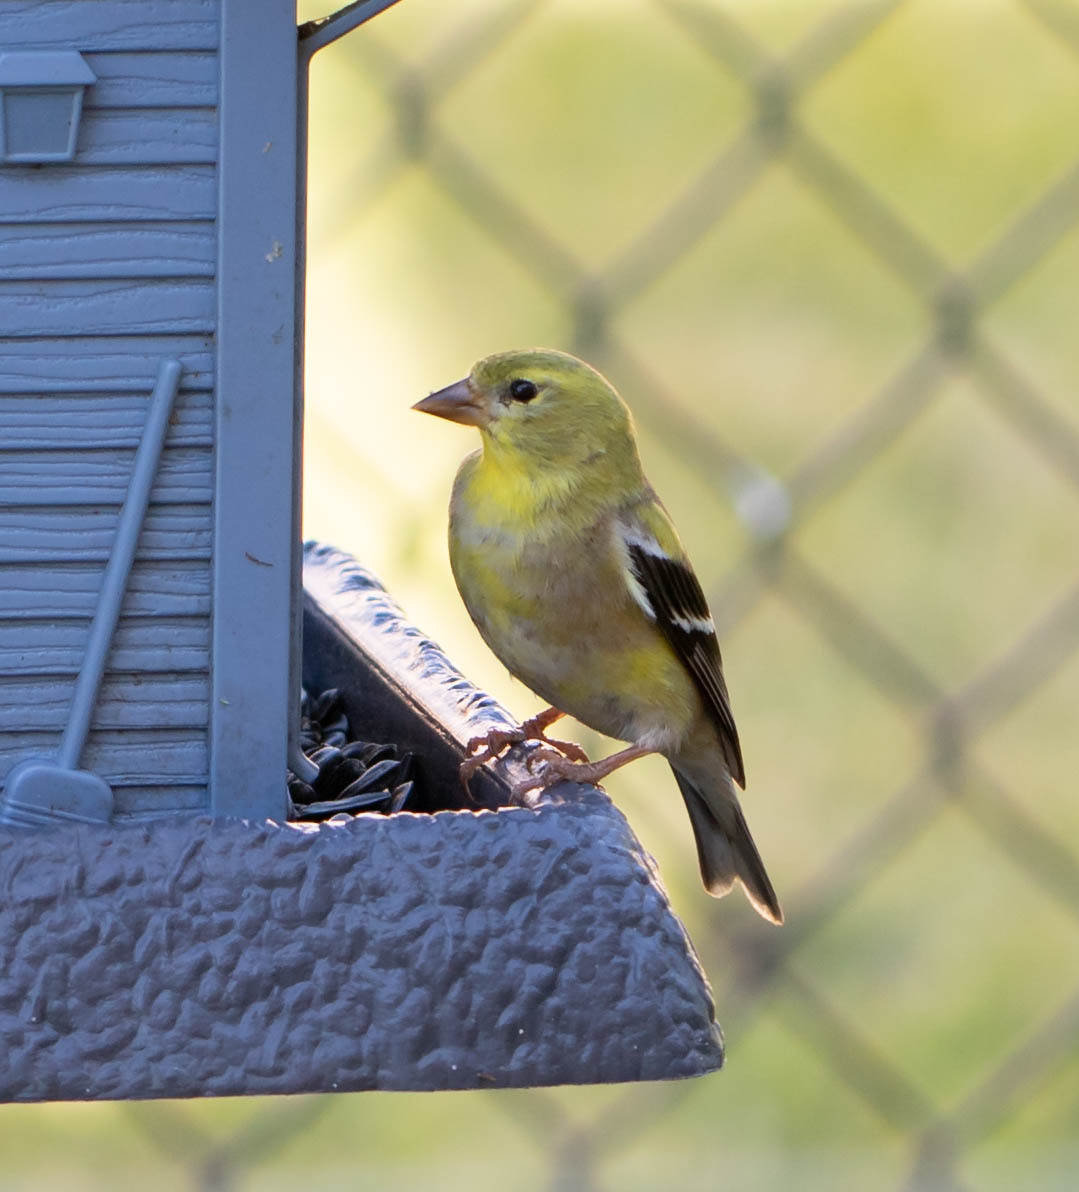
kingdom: Animalia
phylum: Chordata
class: Aves
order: Passeriformes
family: Fringillidae
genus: Spinus
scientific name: Spinus tristis
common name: American goldfinch
